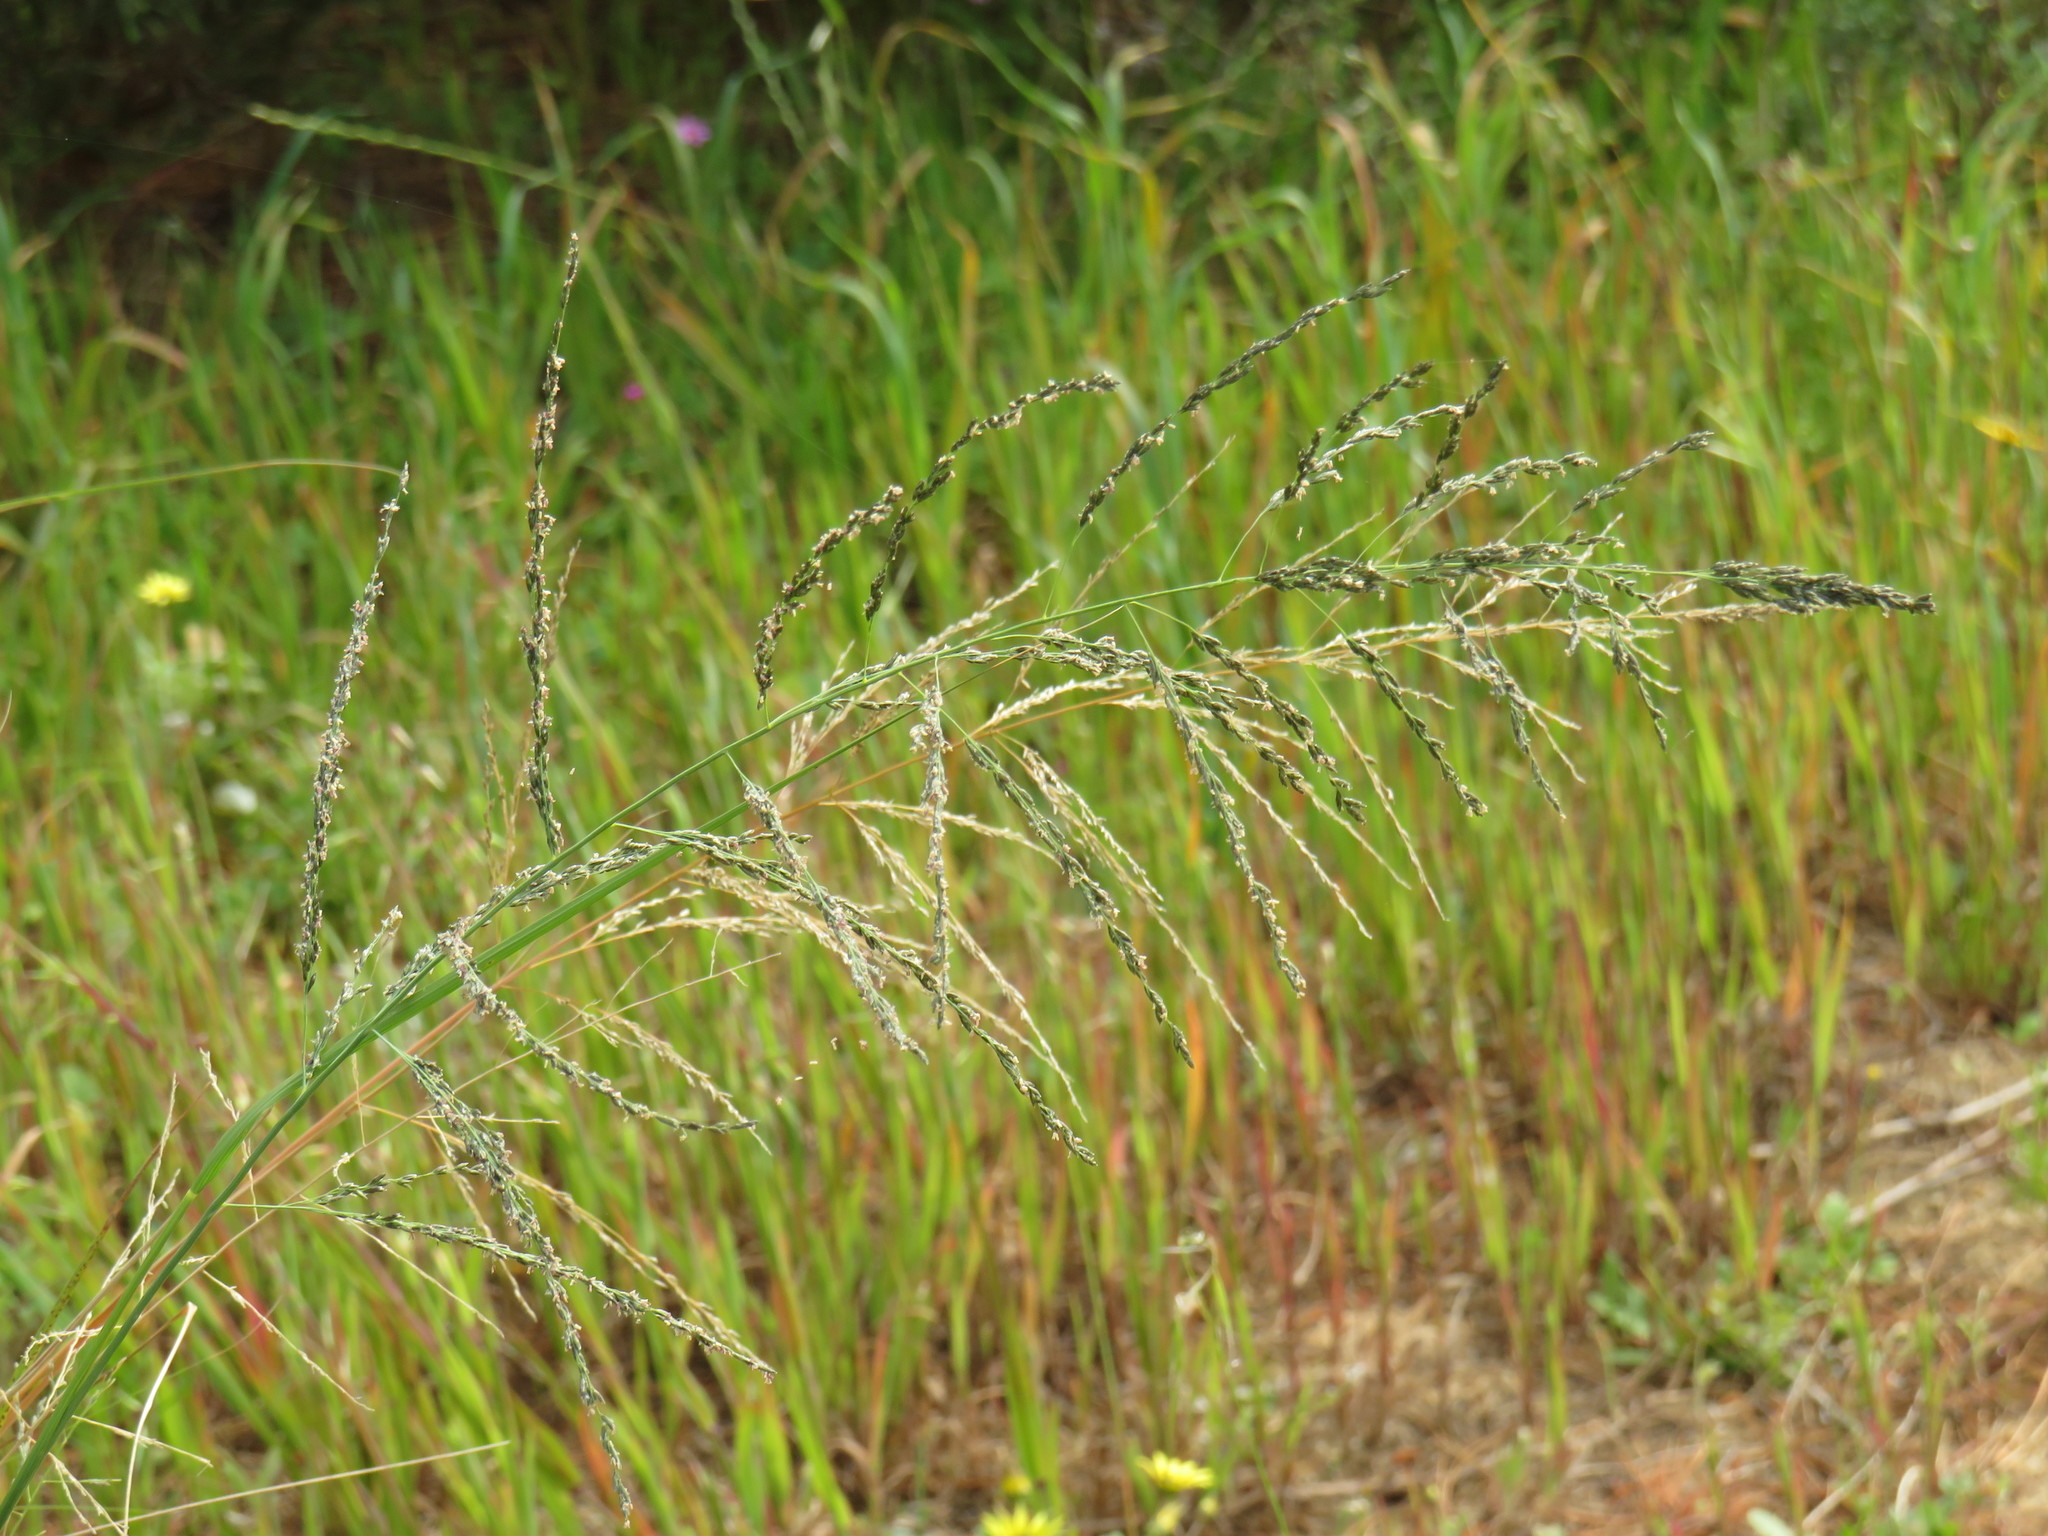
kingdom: Plantae
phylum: Tracheophyta
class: Liliopsida
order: Poales
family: Poaceae
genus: Eragrostis
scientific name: Eragrostis curvula
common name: African love-grass
